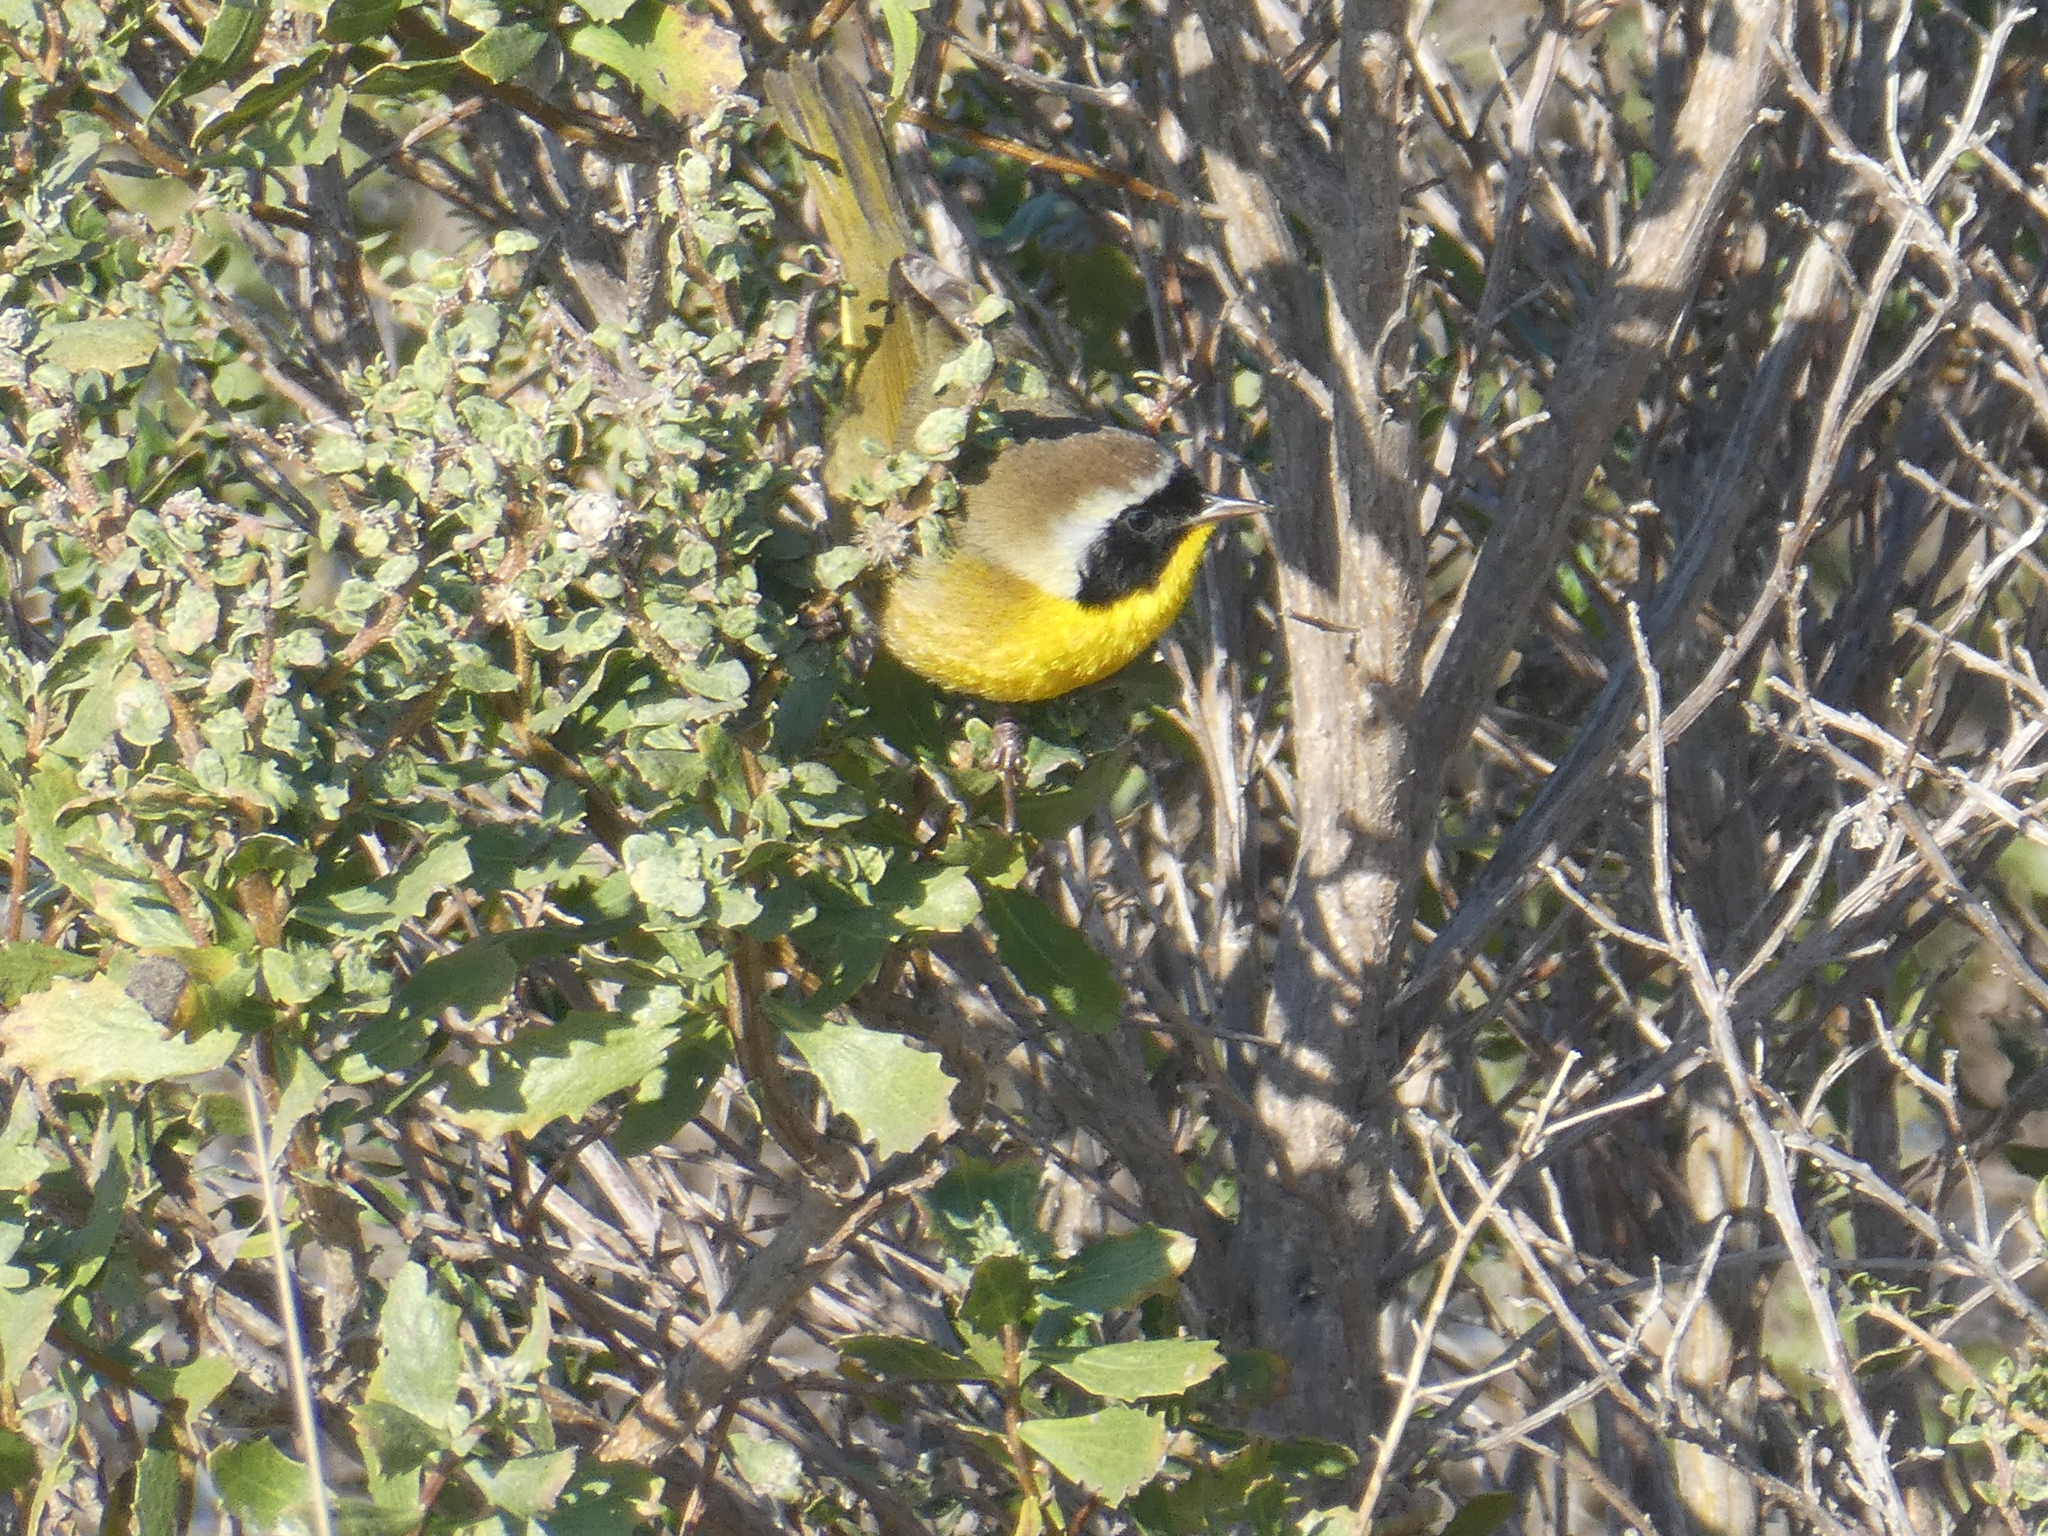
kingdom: Animalia
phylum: Chordata
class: Aves
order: Passeriformes
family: Parulidae
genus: Geothlypis
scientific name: Geothlypis trichas
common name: Common yellowthroat
